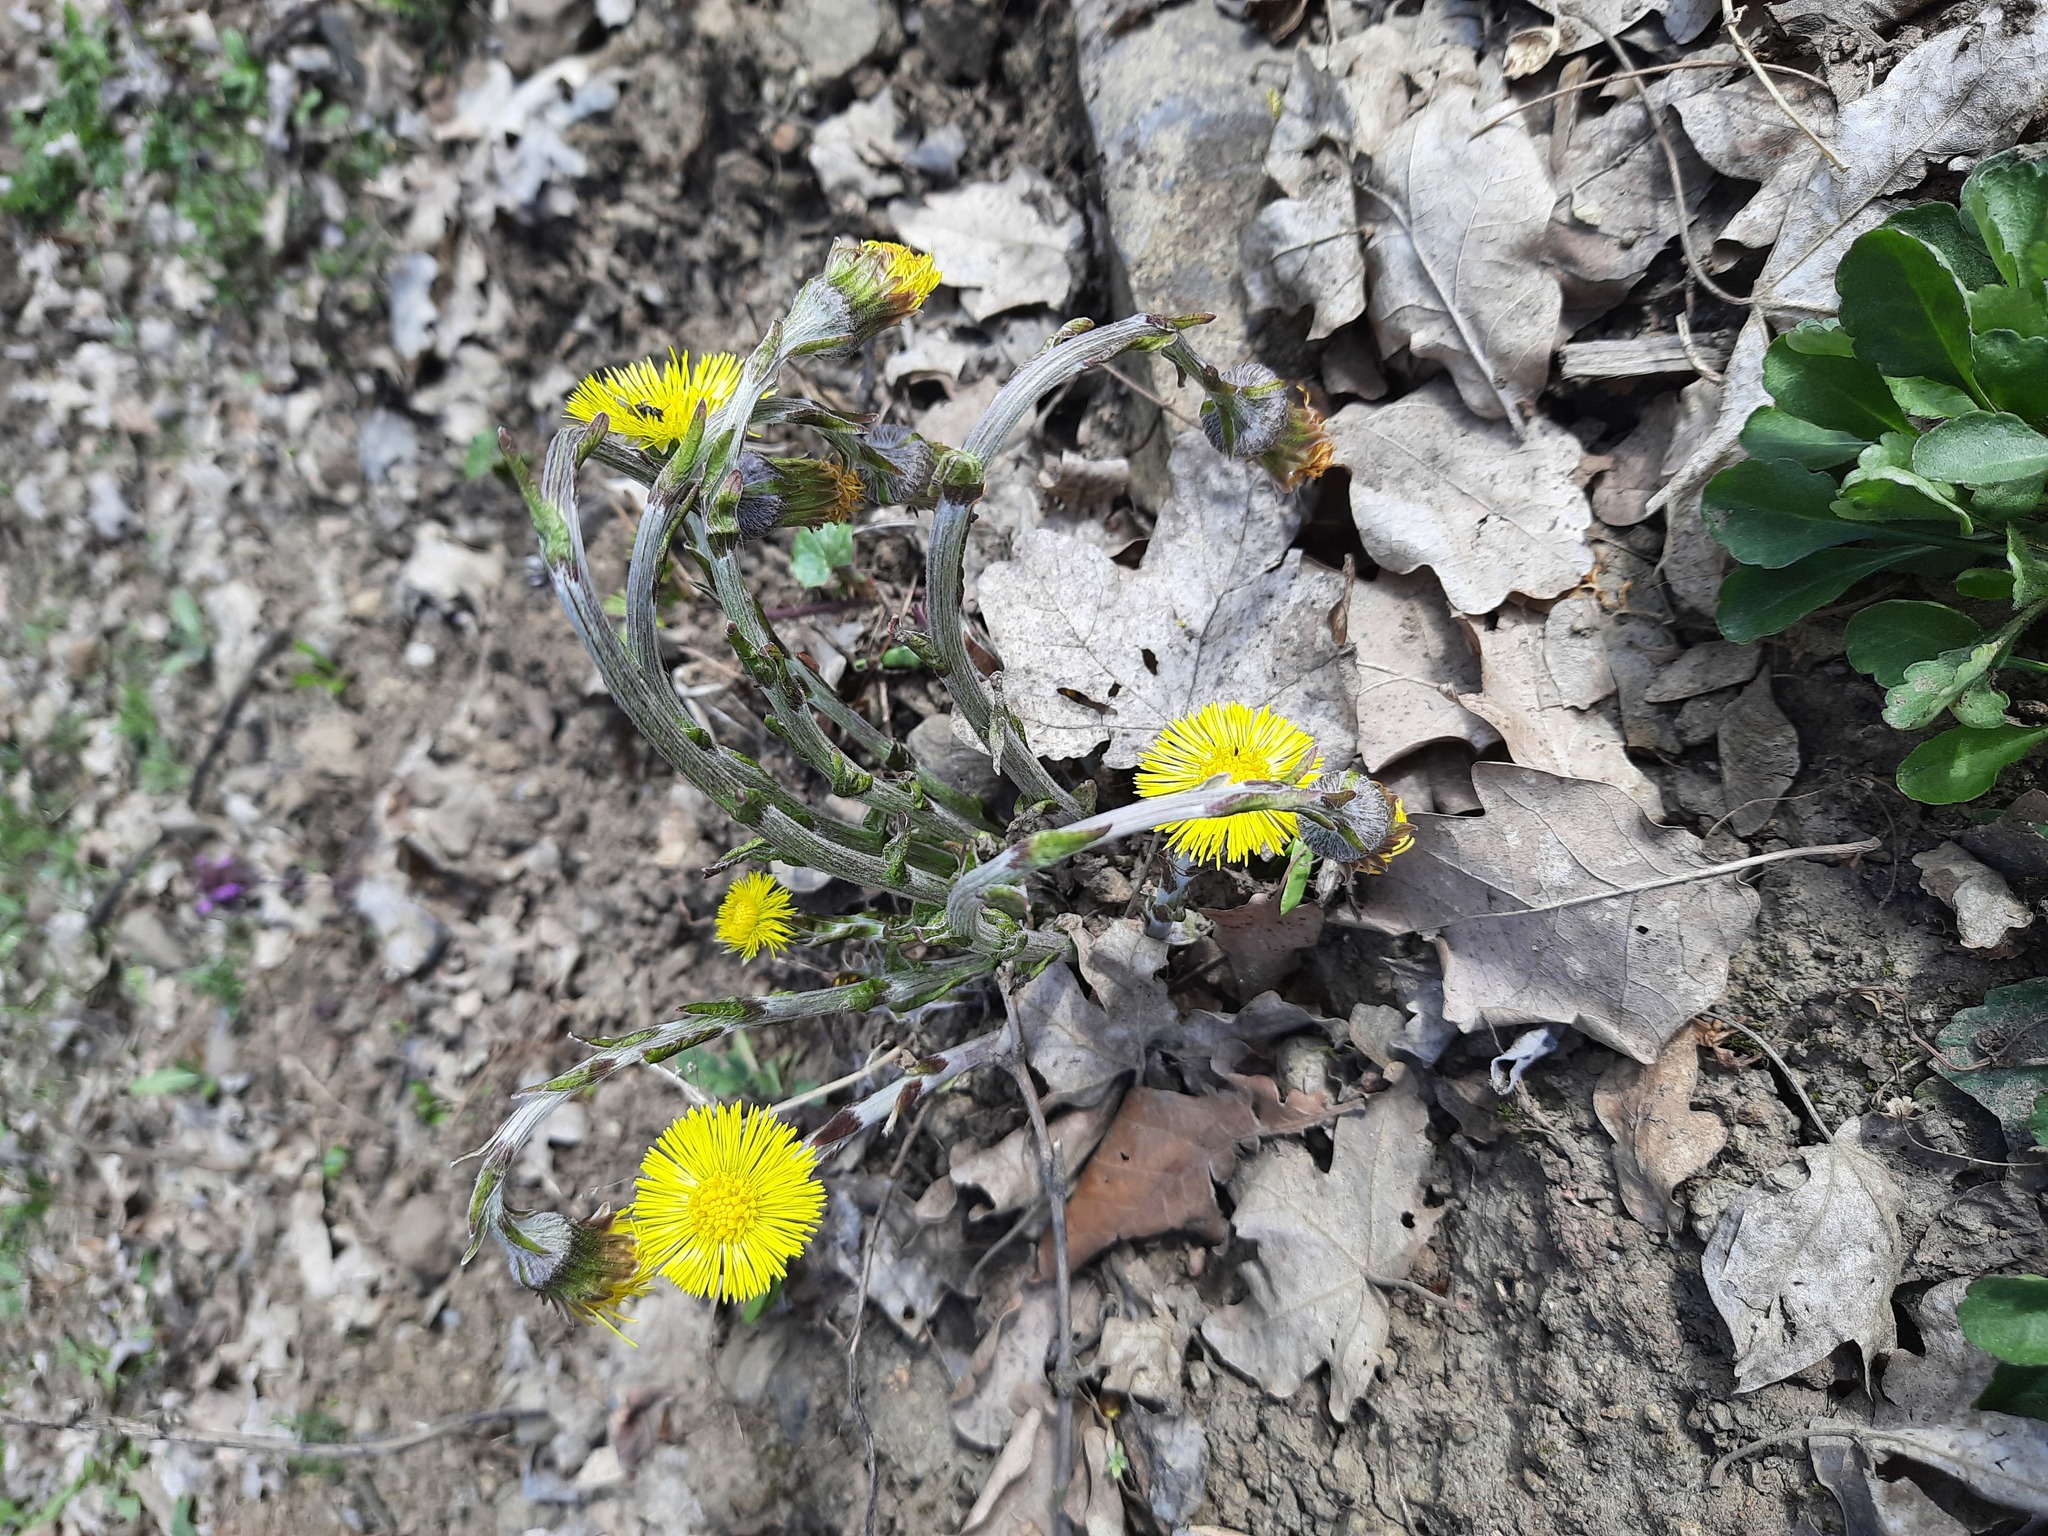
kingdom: Plantae
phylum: Tracheophyta
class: Magnoliopsida
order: Asterales
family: Asteraceae
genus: Tussilago
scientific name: Tussilago farfara
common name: Coltsfoot
